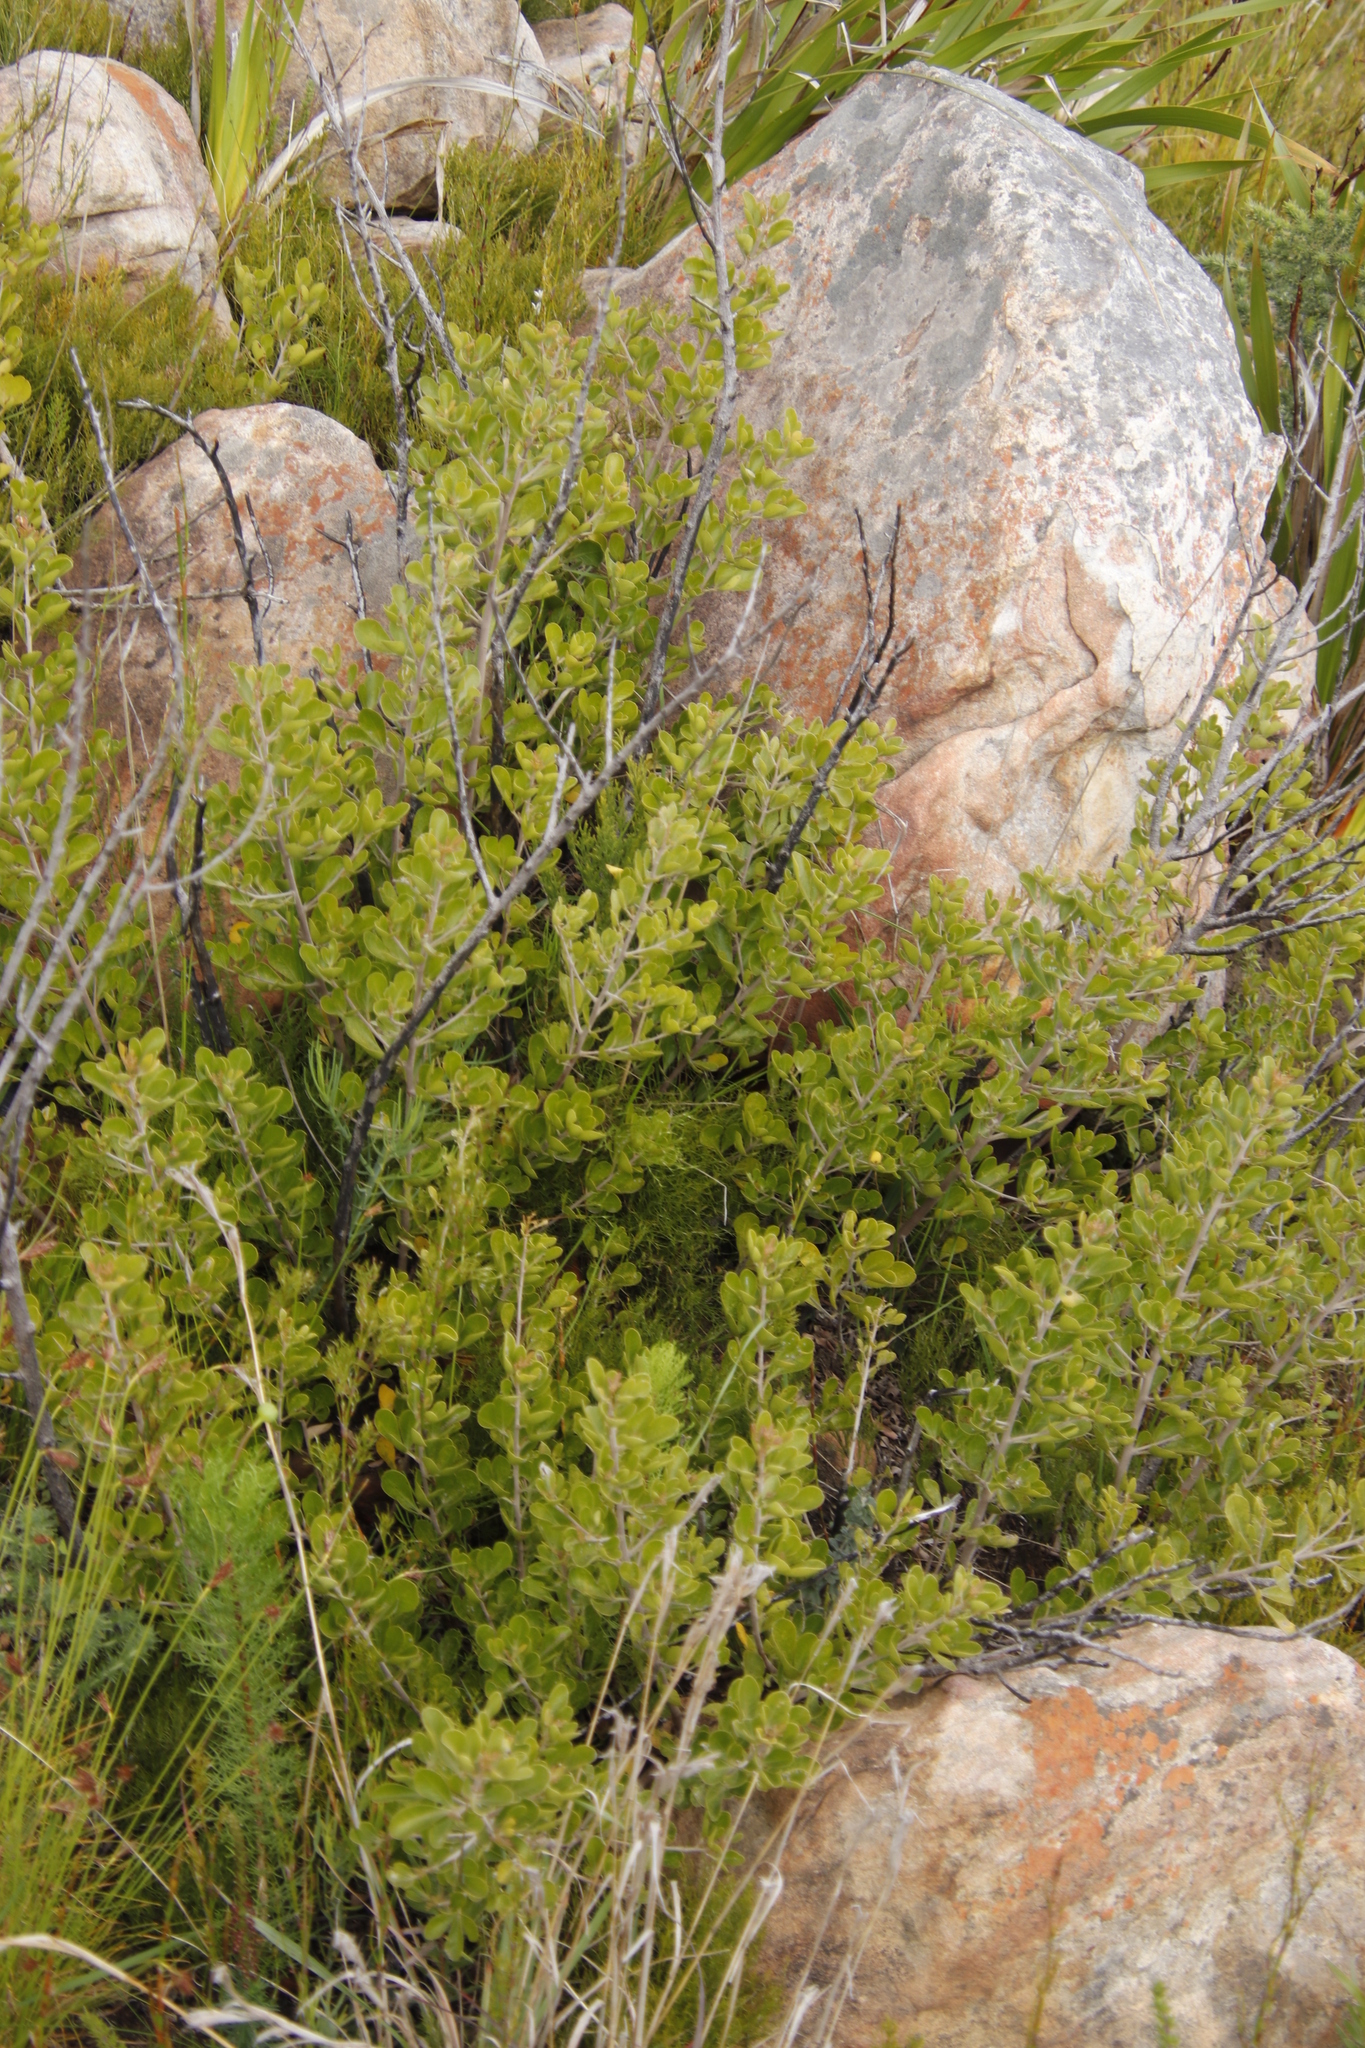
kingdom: Plantae
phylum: Tracheophyta
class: Magnoliopsida
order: Sapindales
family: Anacardiaceae
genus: Searsia
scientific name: Searsia lucida
